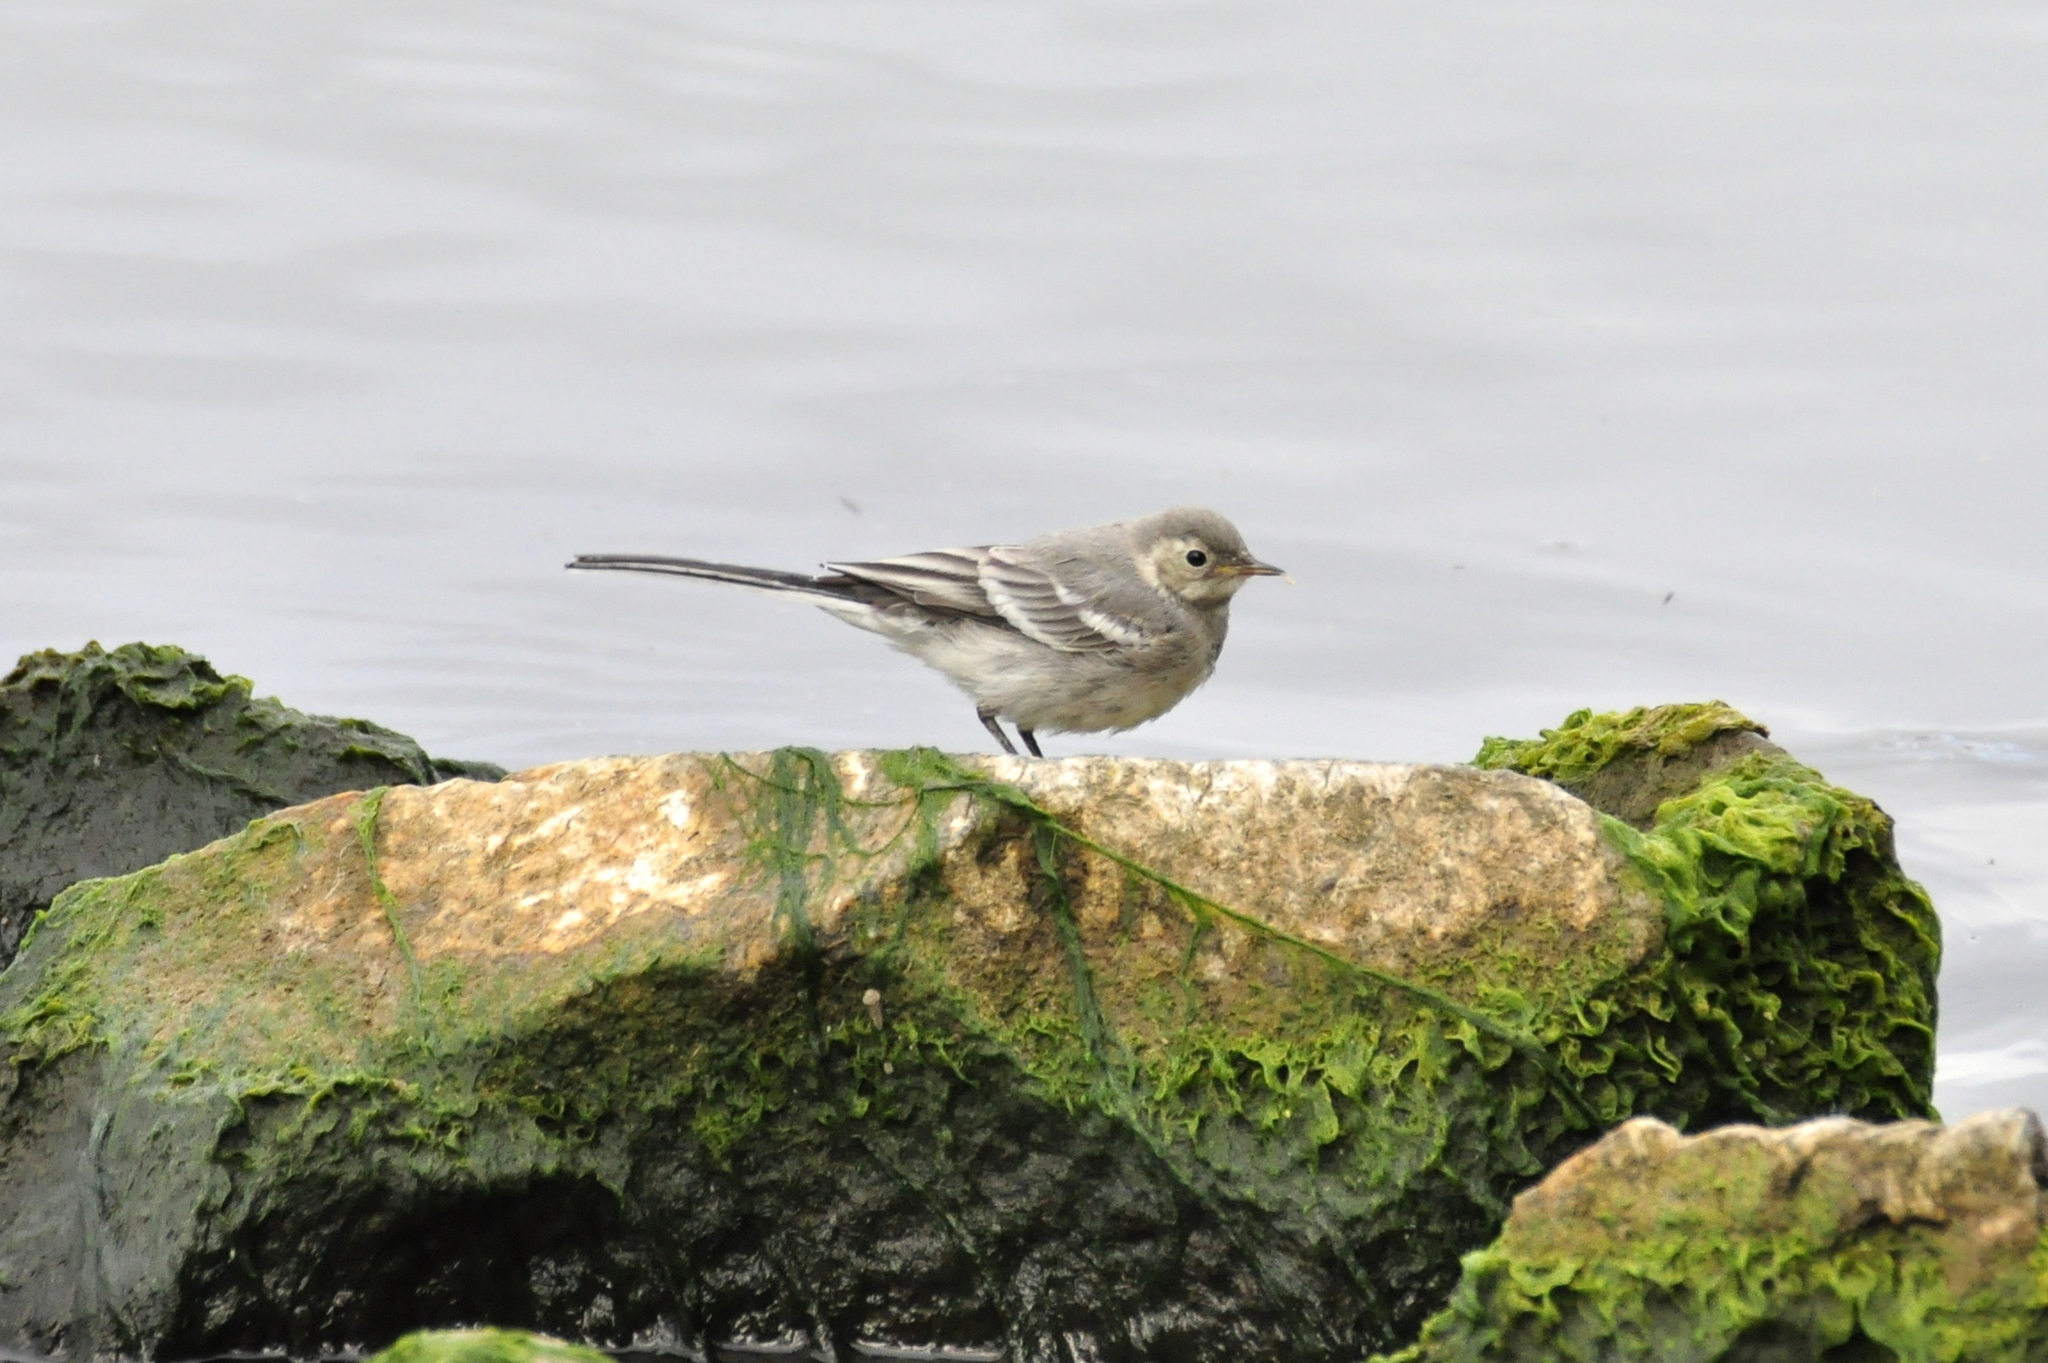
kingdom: Animalia
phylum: Chordata
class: Aves
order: Passeriformes
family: Motacillidae
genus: Motacilla
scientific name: Motacilla alba
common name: White wagtail
